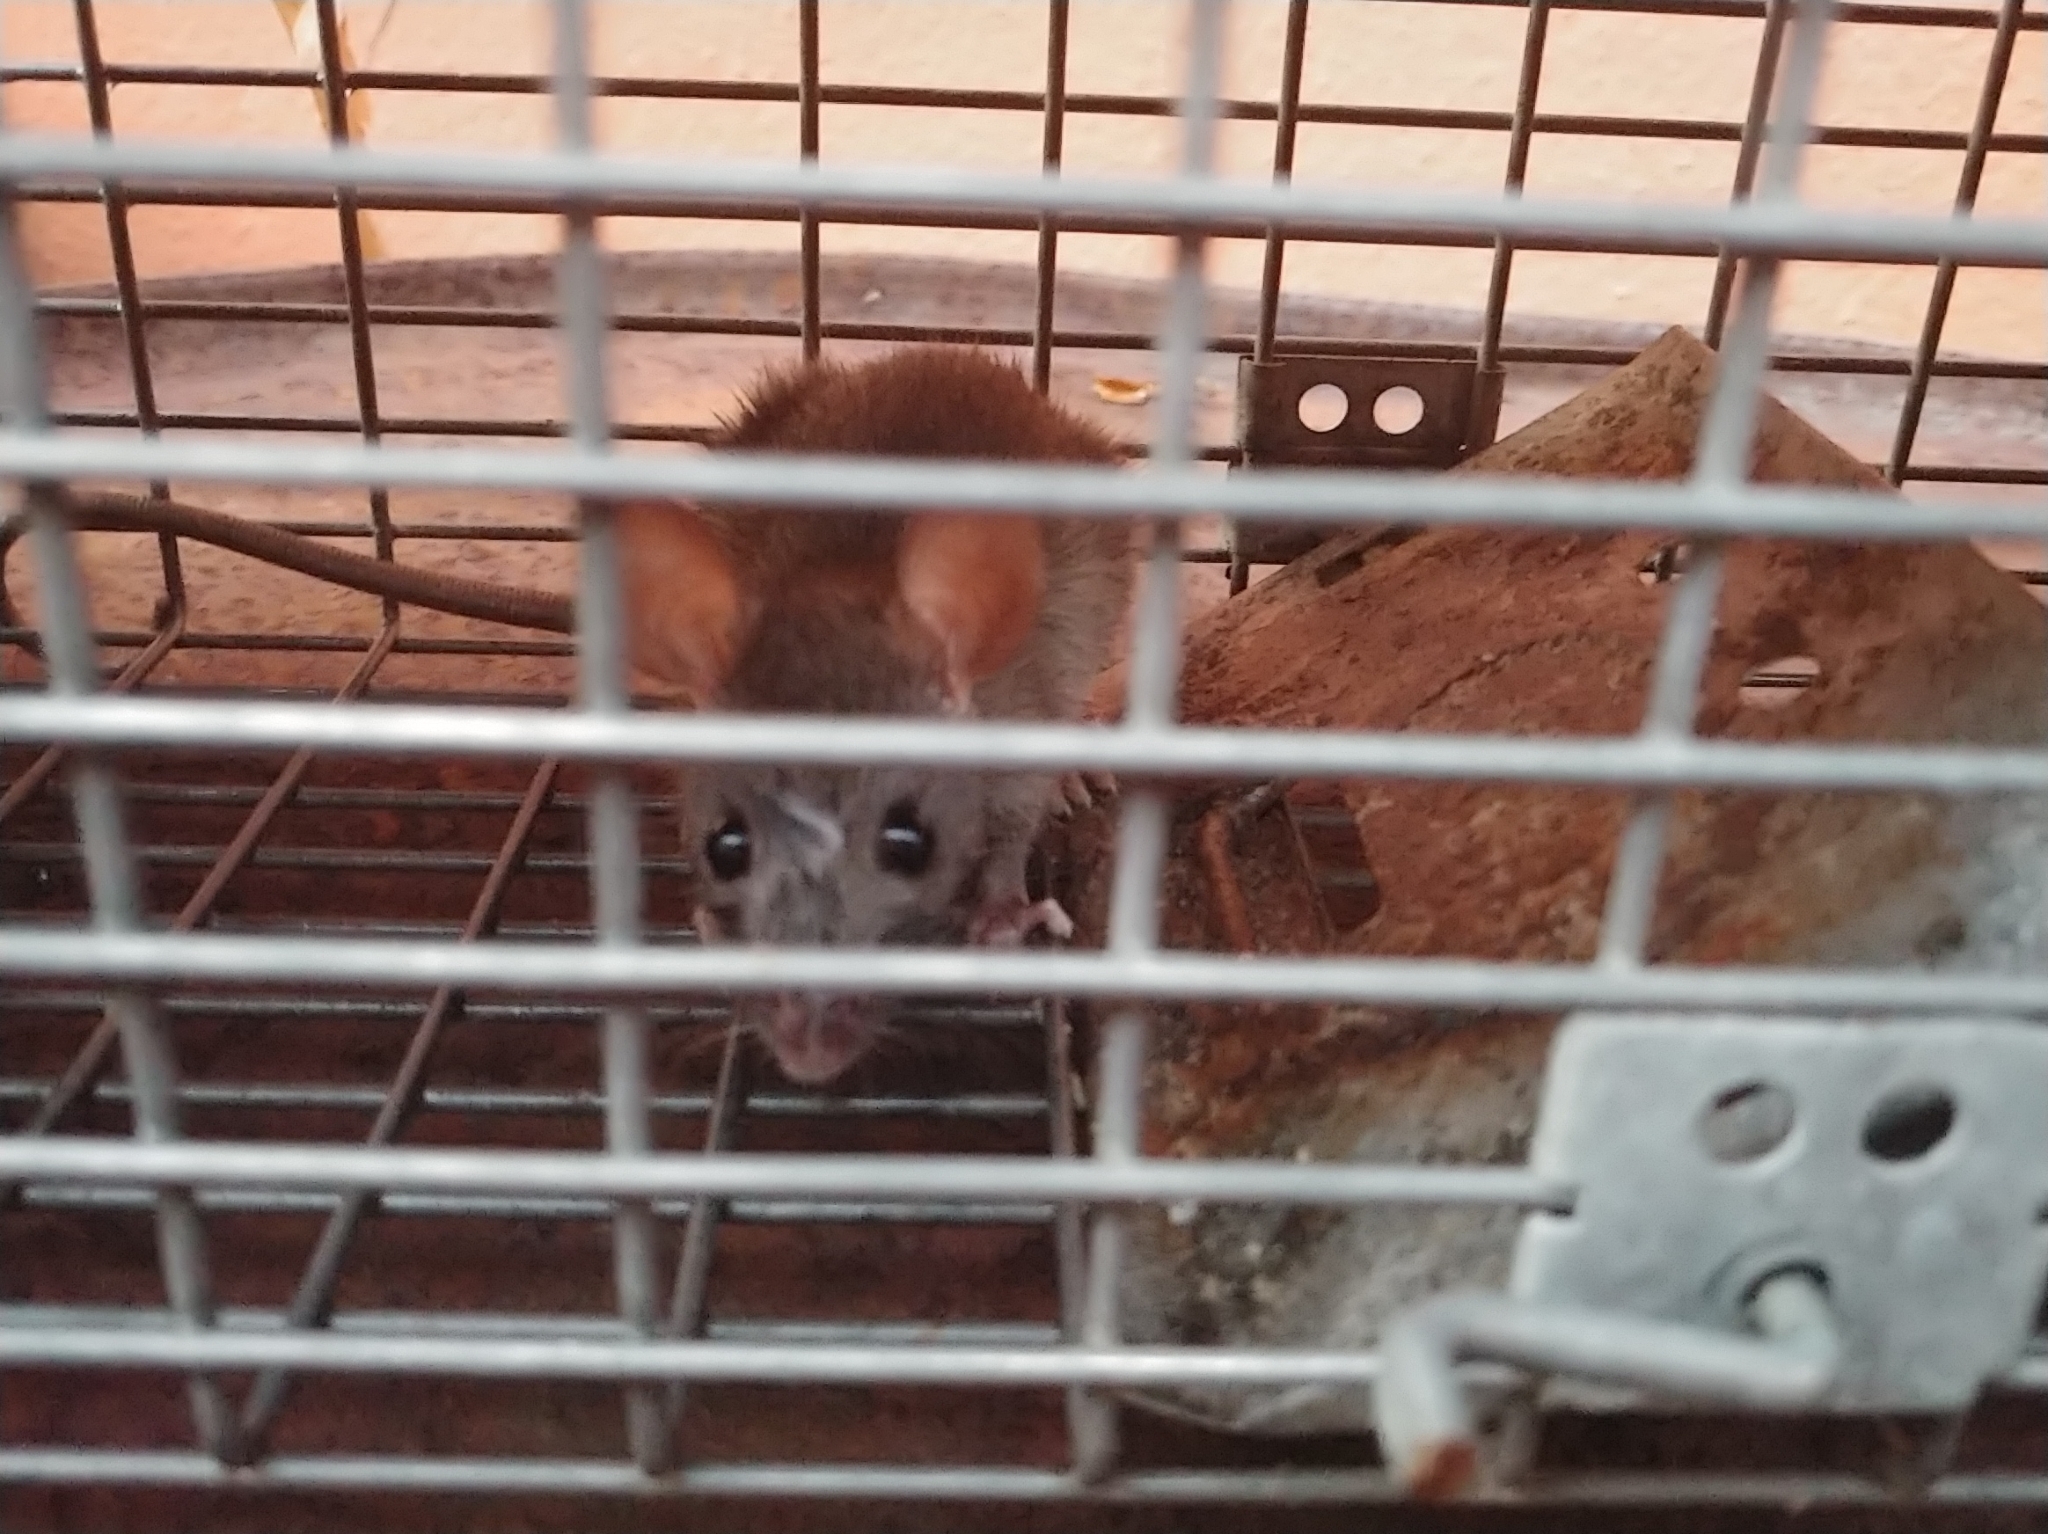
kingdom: Animalia
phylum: Chordata
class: Mammalia
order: Rodentia
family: Muridae
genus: Rattus
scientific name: Rattus rattus
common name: Black rat
